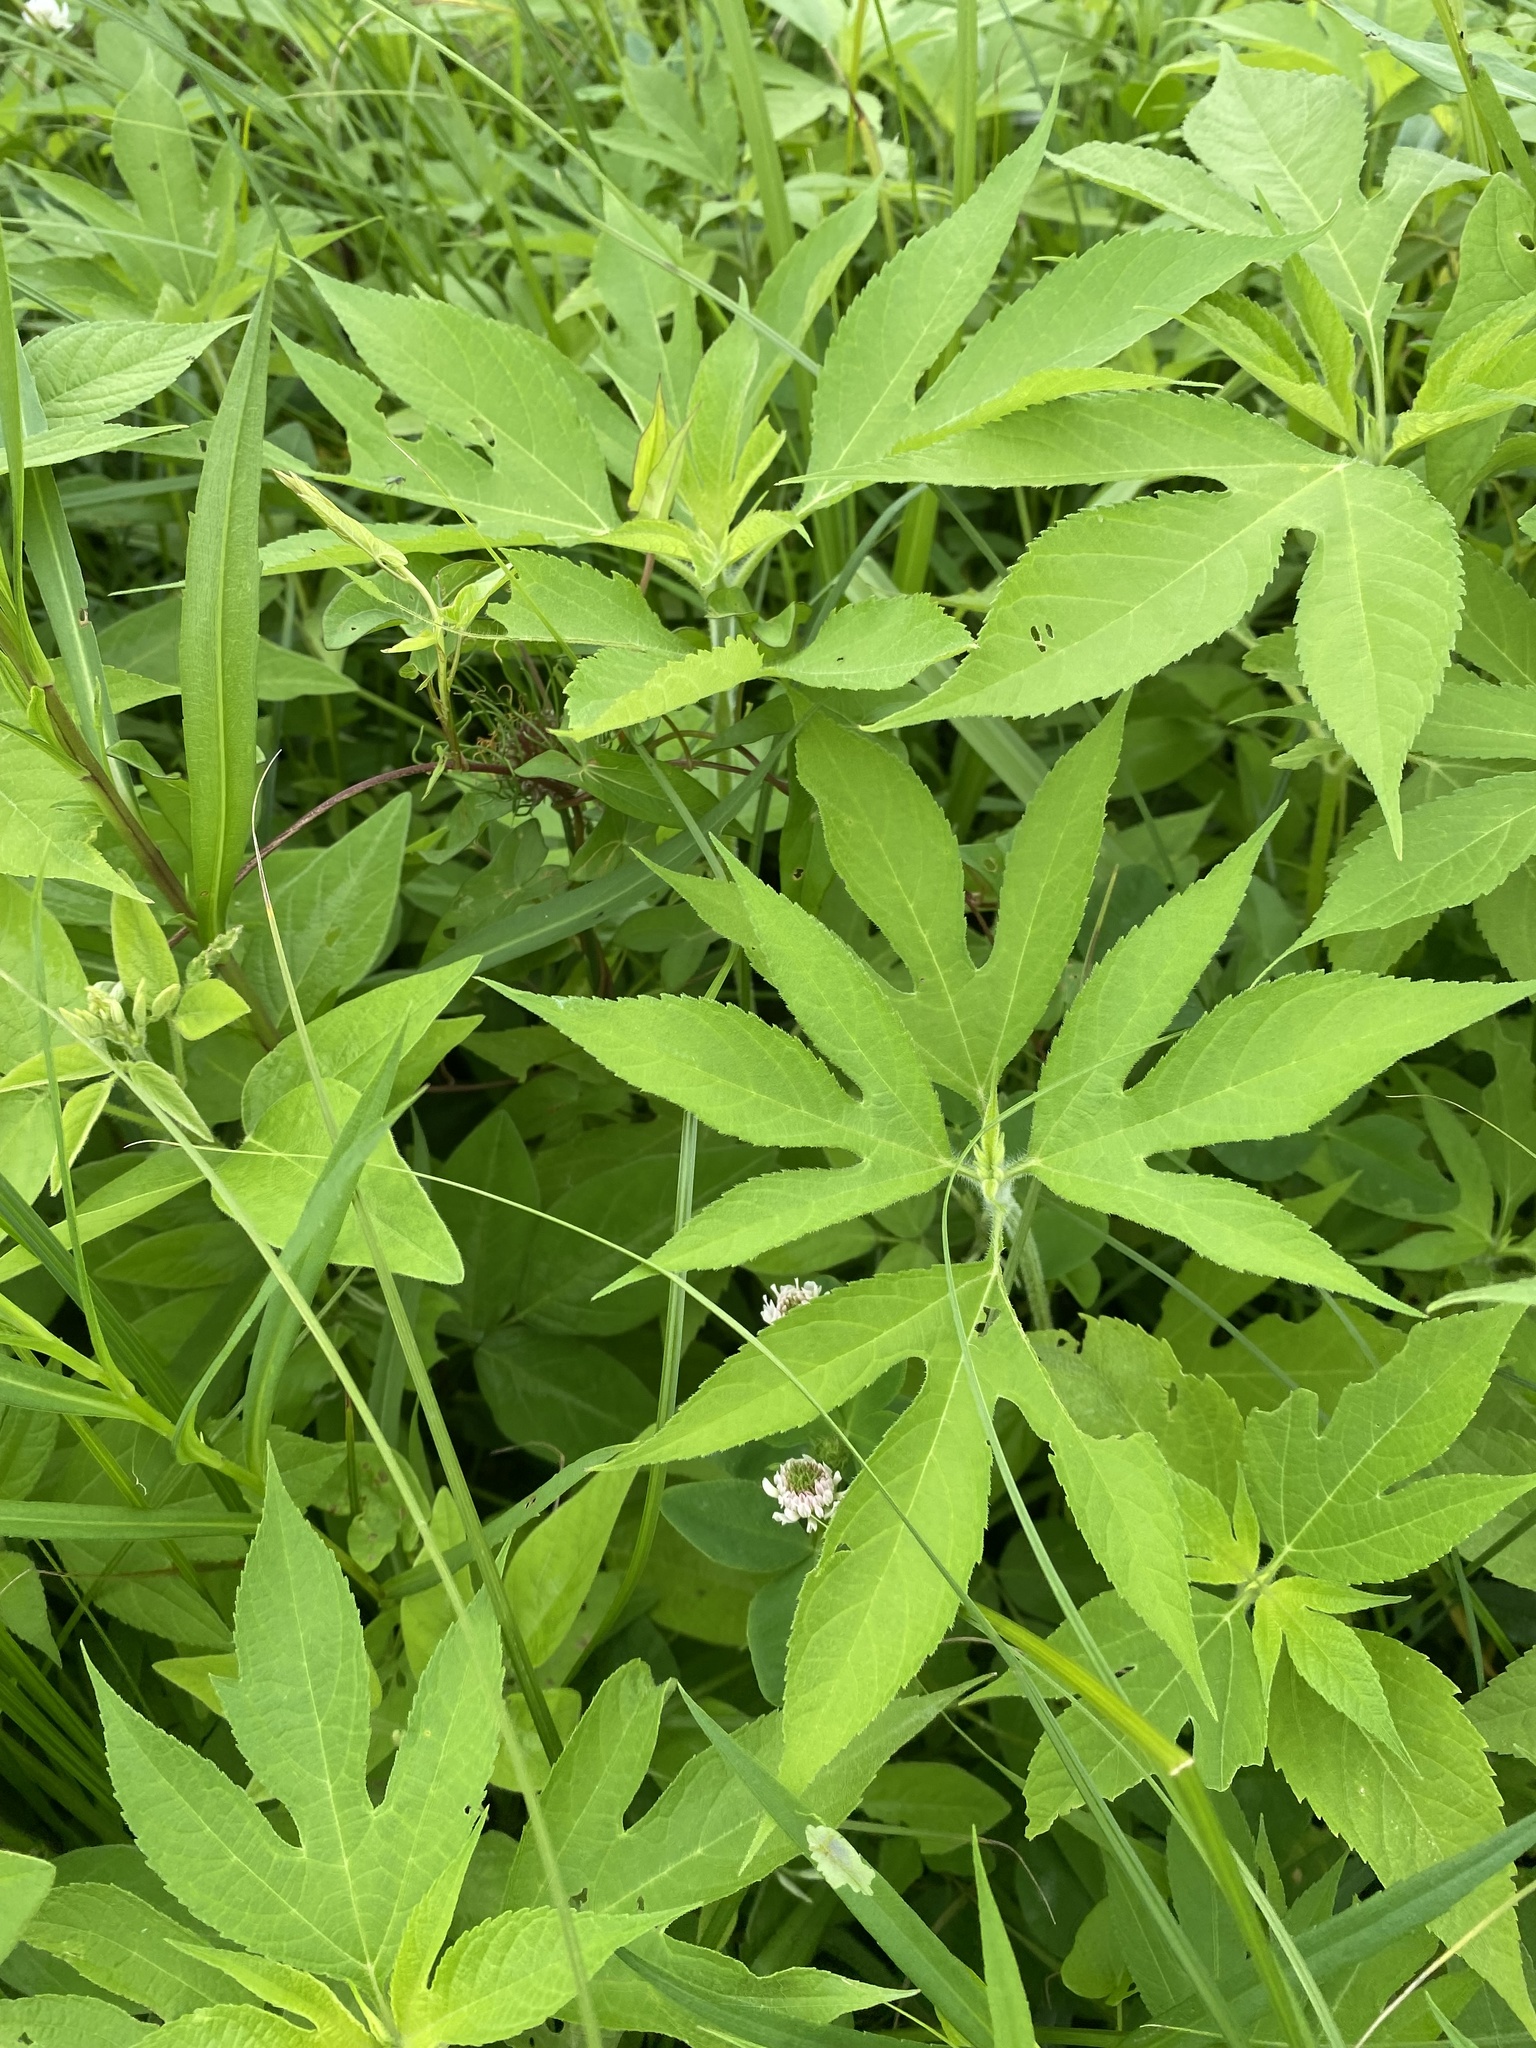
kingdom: Plantae
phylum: Tracheophyta
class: Magnoliopsida
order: Asterales
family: Asteraceae
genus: Ambrosia
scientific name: Ambrosia trifida
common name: Giant ragweed
